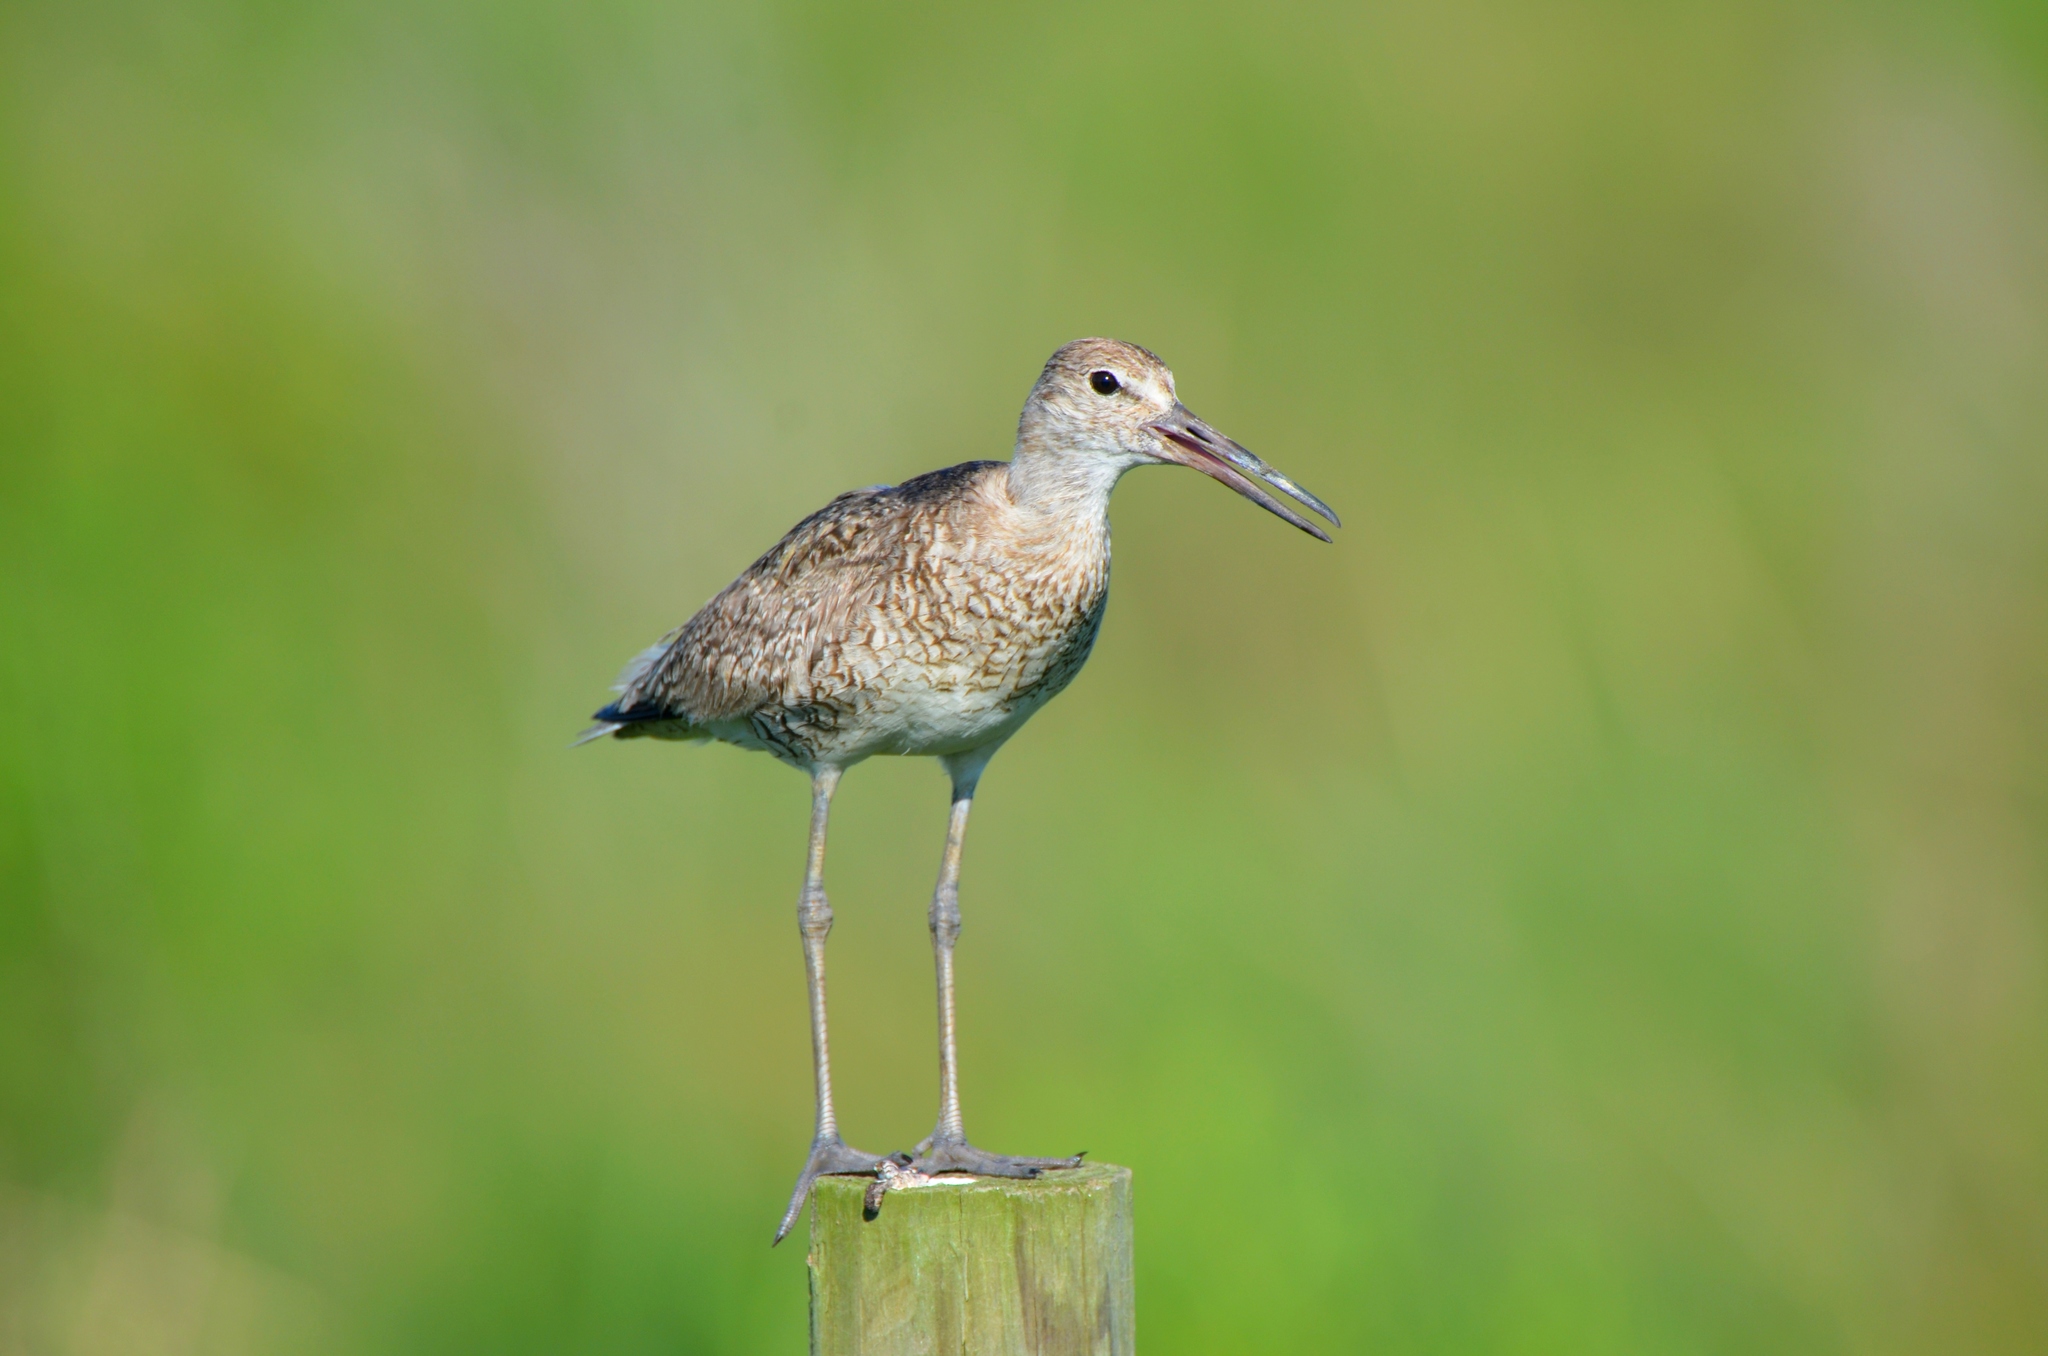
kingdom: Animalia
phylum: Chordata
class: Aves
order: Charadriiformes
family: Scolopacidae
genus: Tringa
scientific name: Tringa semipalmata
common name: Willet
